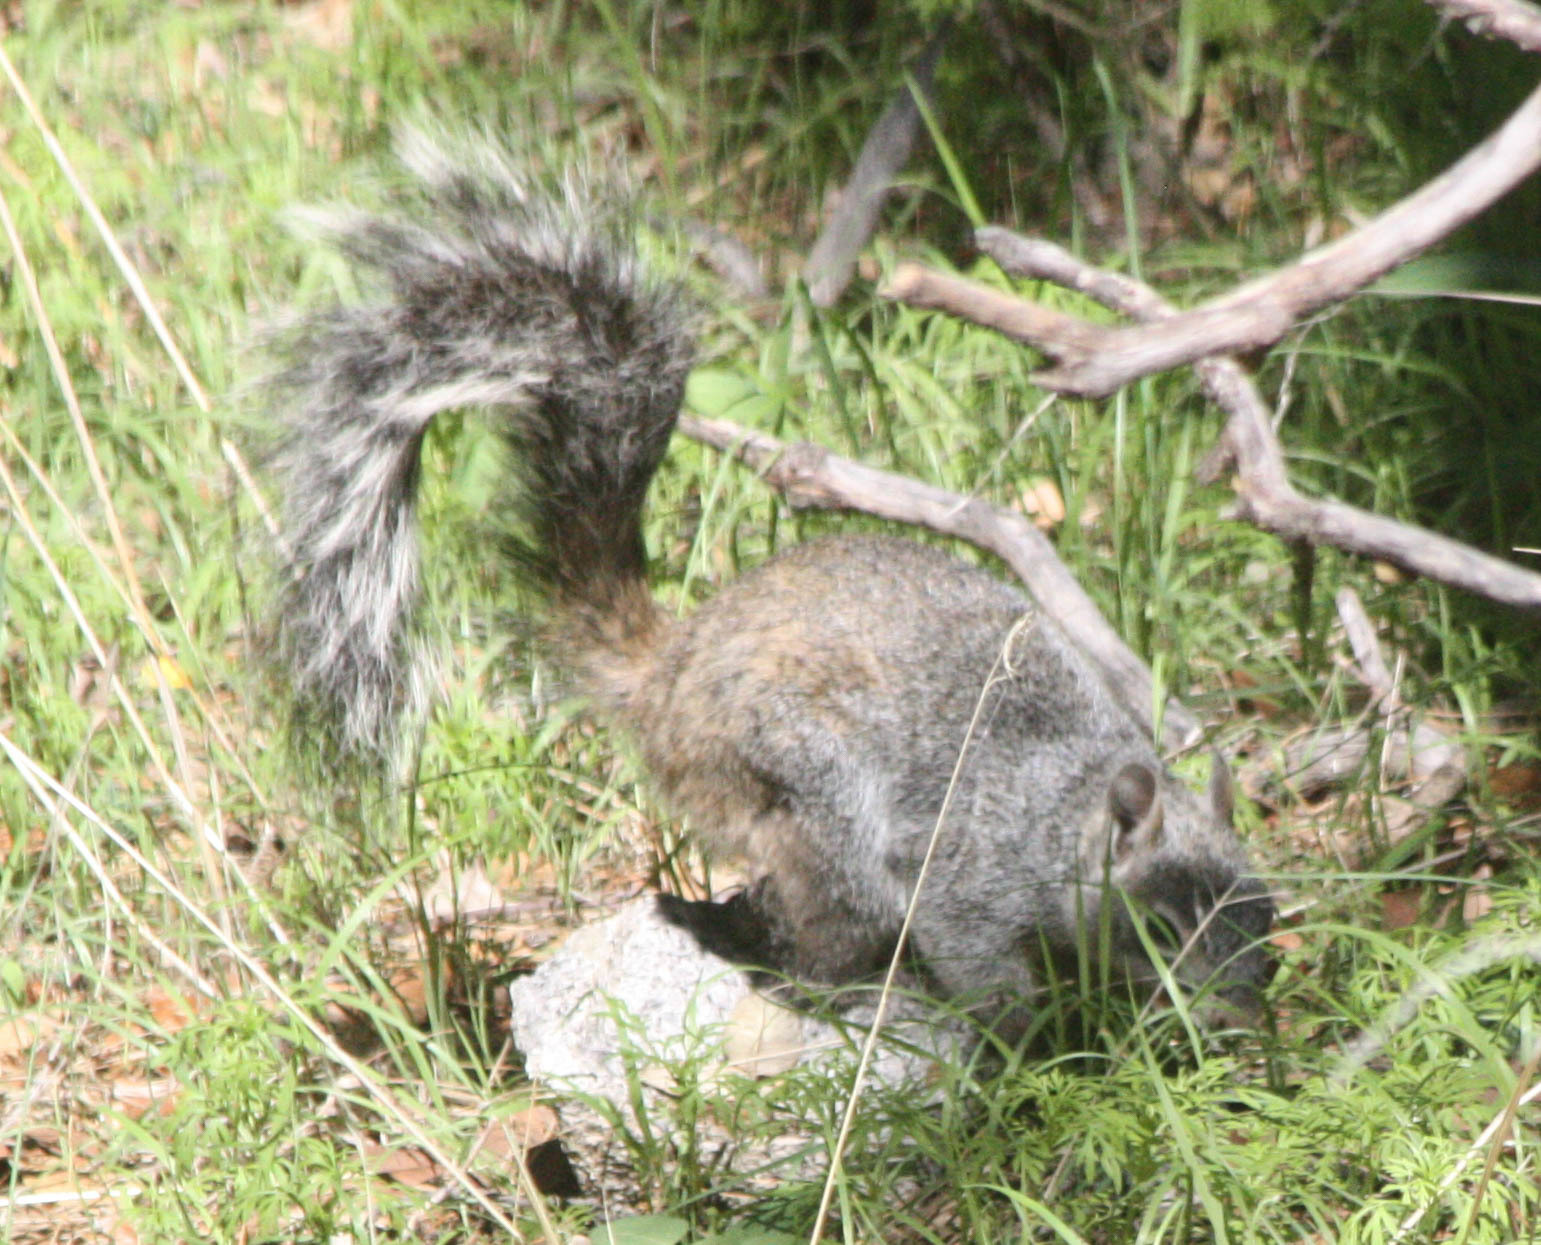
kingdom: Animalia
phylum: Chordata
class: Mammalia
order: Rodentia
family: Sciuridae
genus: Sciurus
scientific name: Sciurus arizonensis
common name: Arizona gray squirrel
